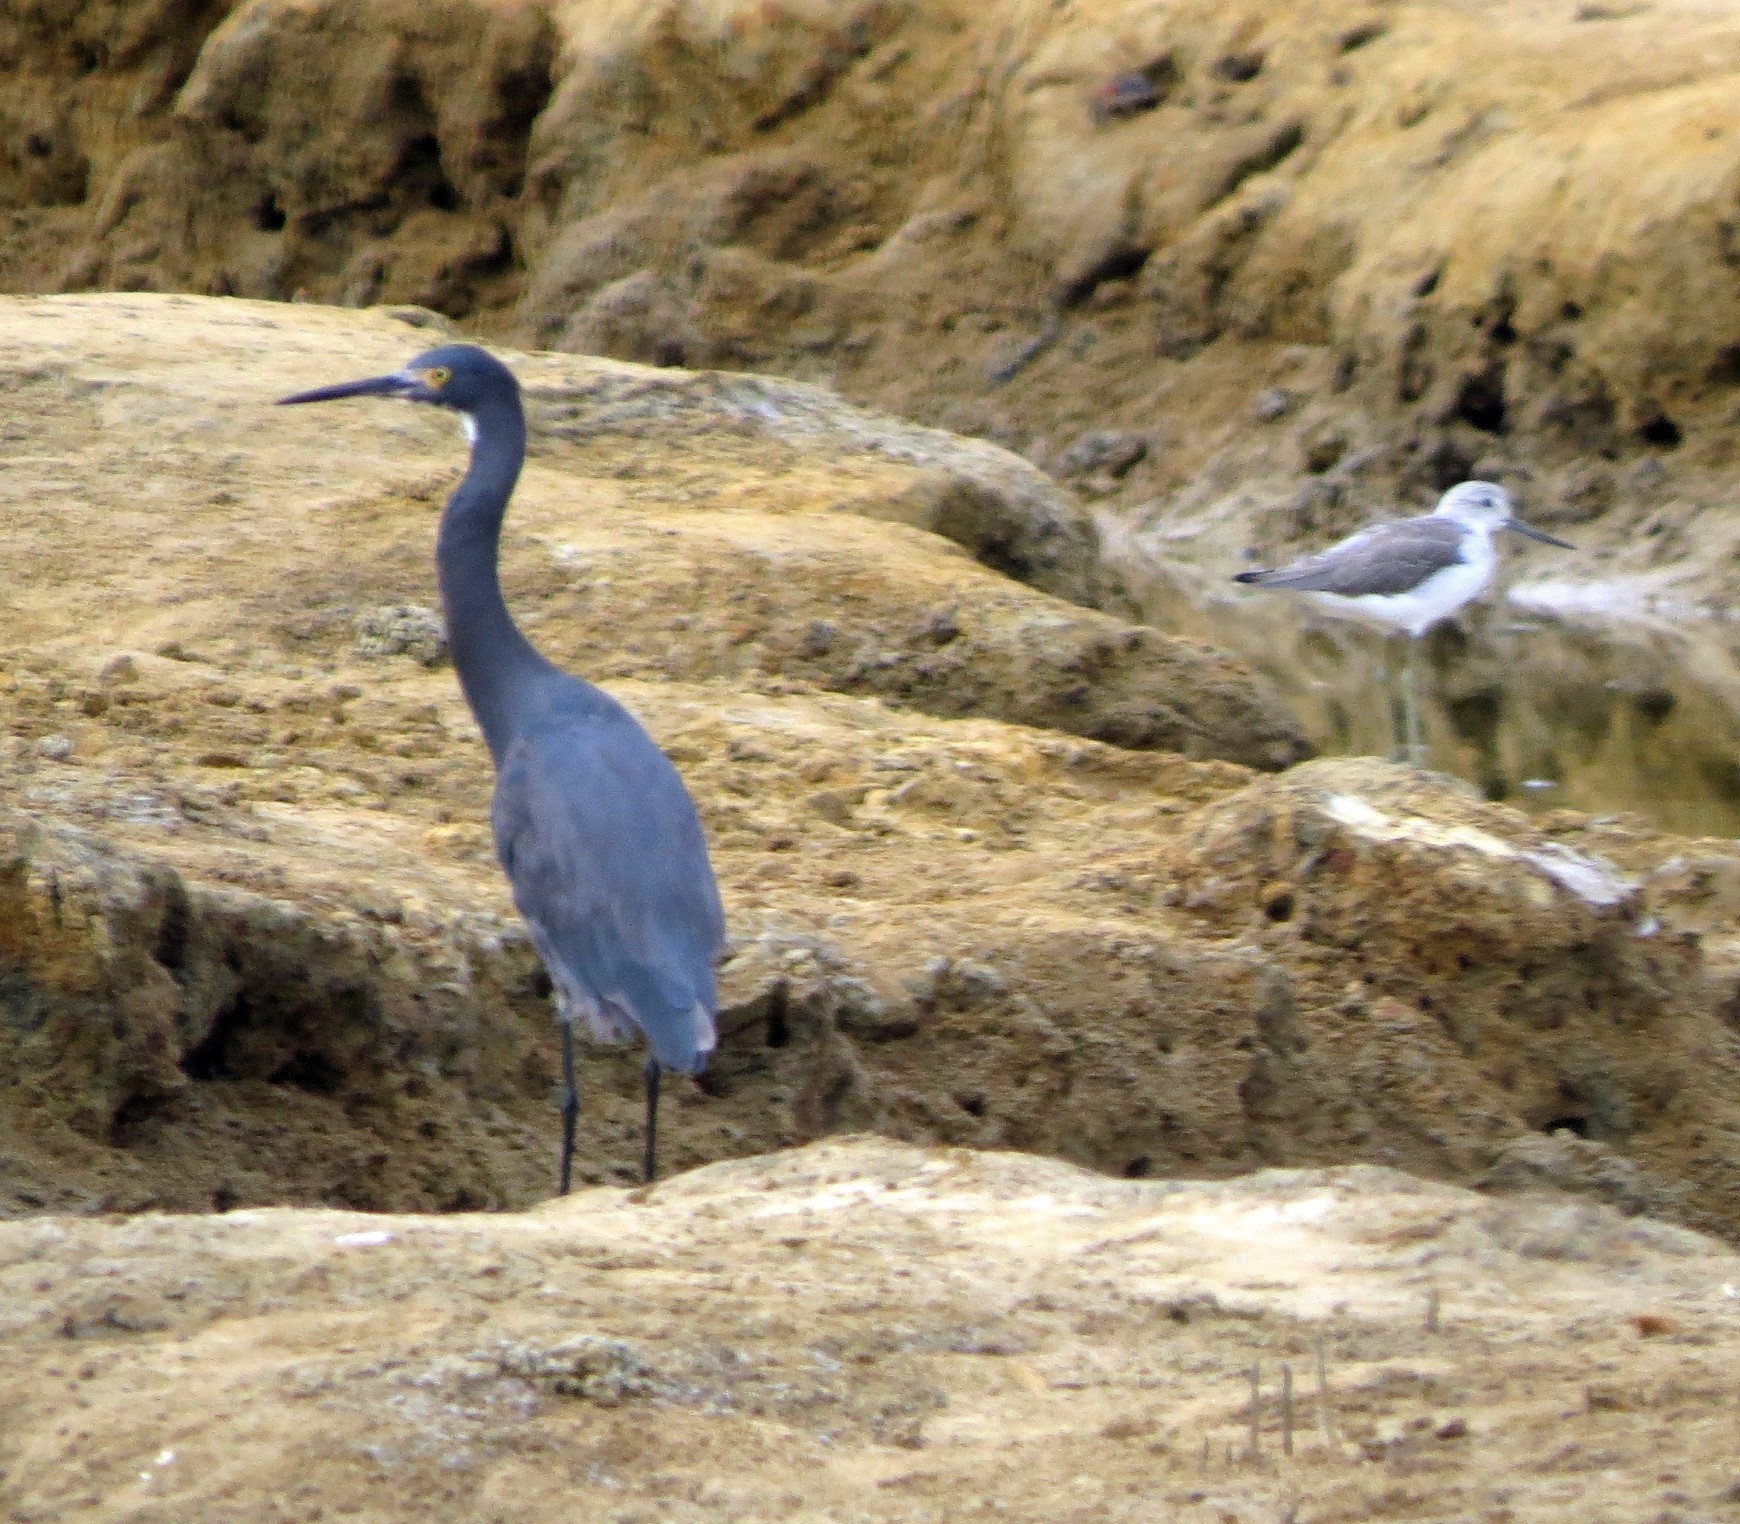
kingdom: Animalia
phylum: Chordata
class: Aves
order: Charadriiformes
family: Scolopacidae
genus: Tringa
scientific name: Tringa nebularia
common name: Common greenshank
